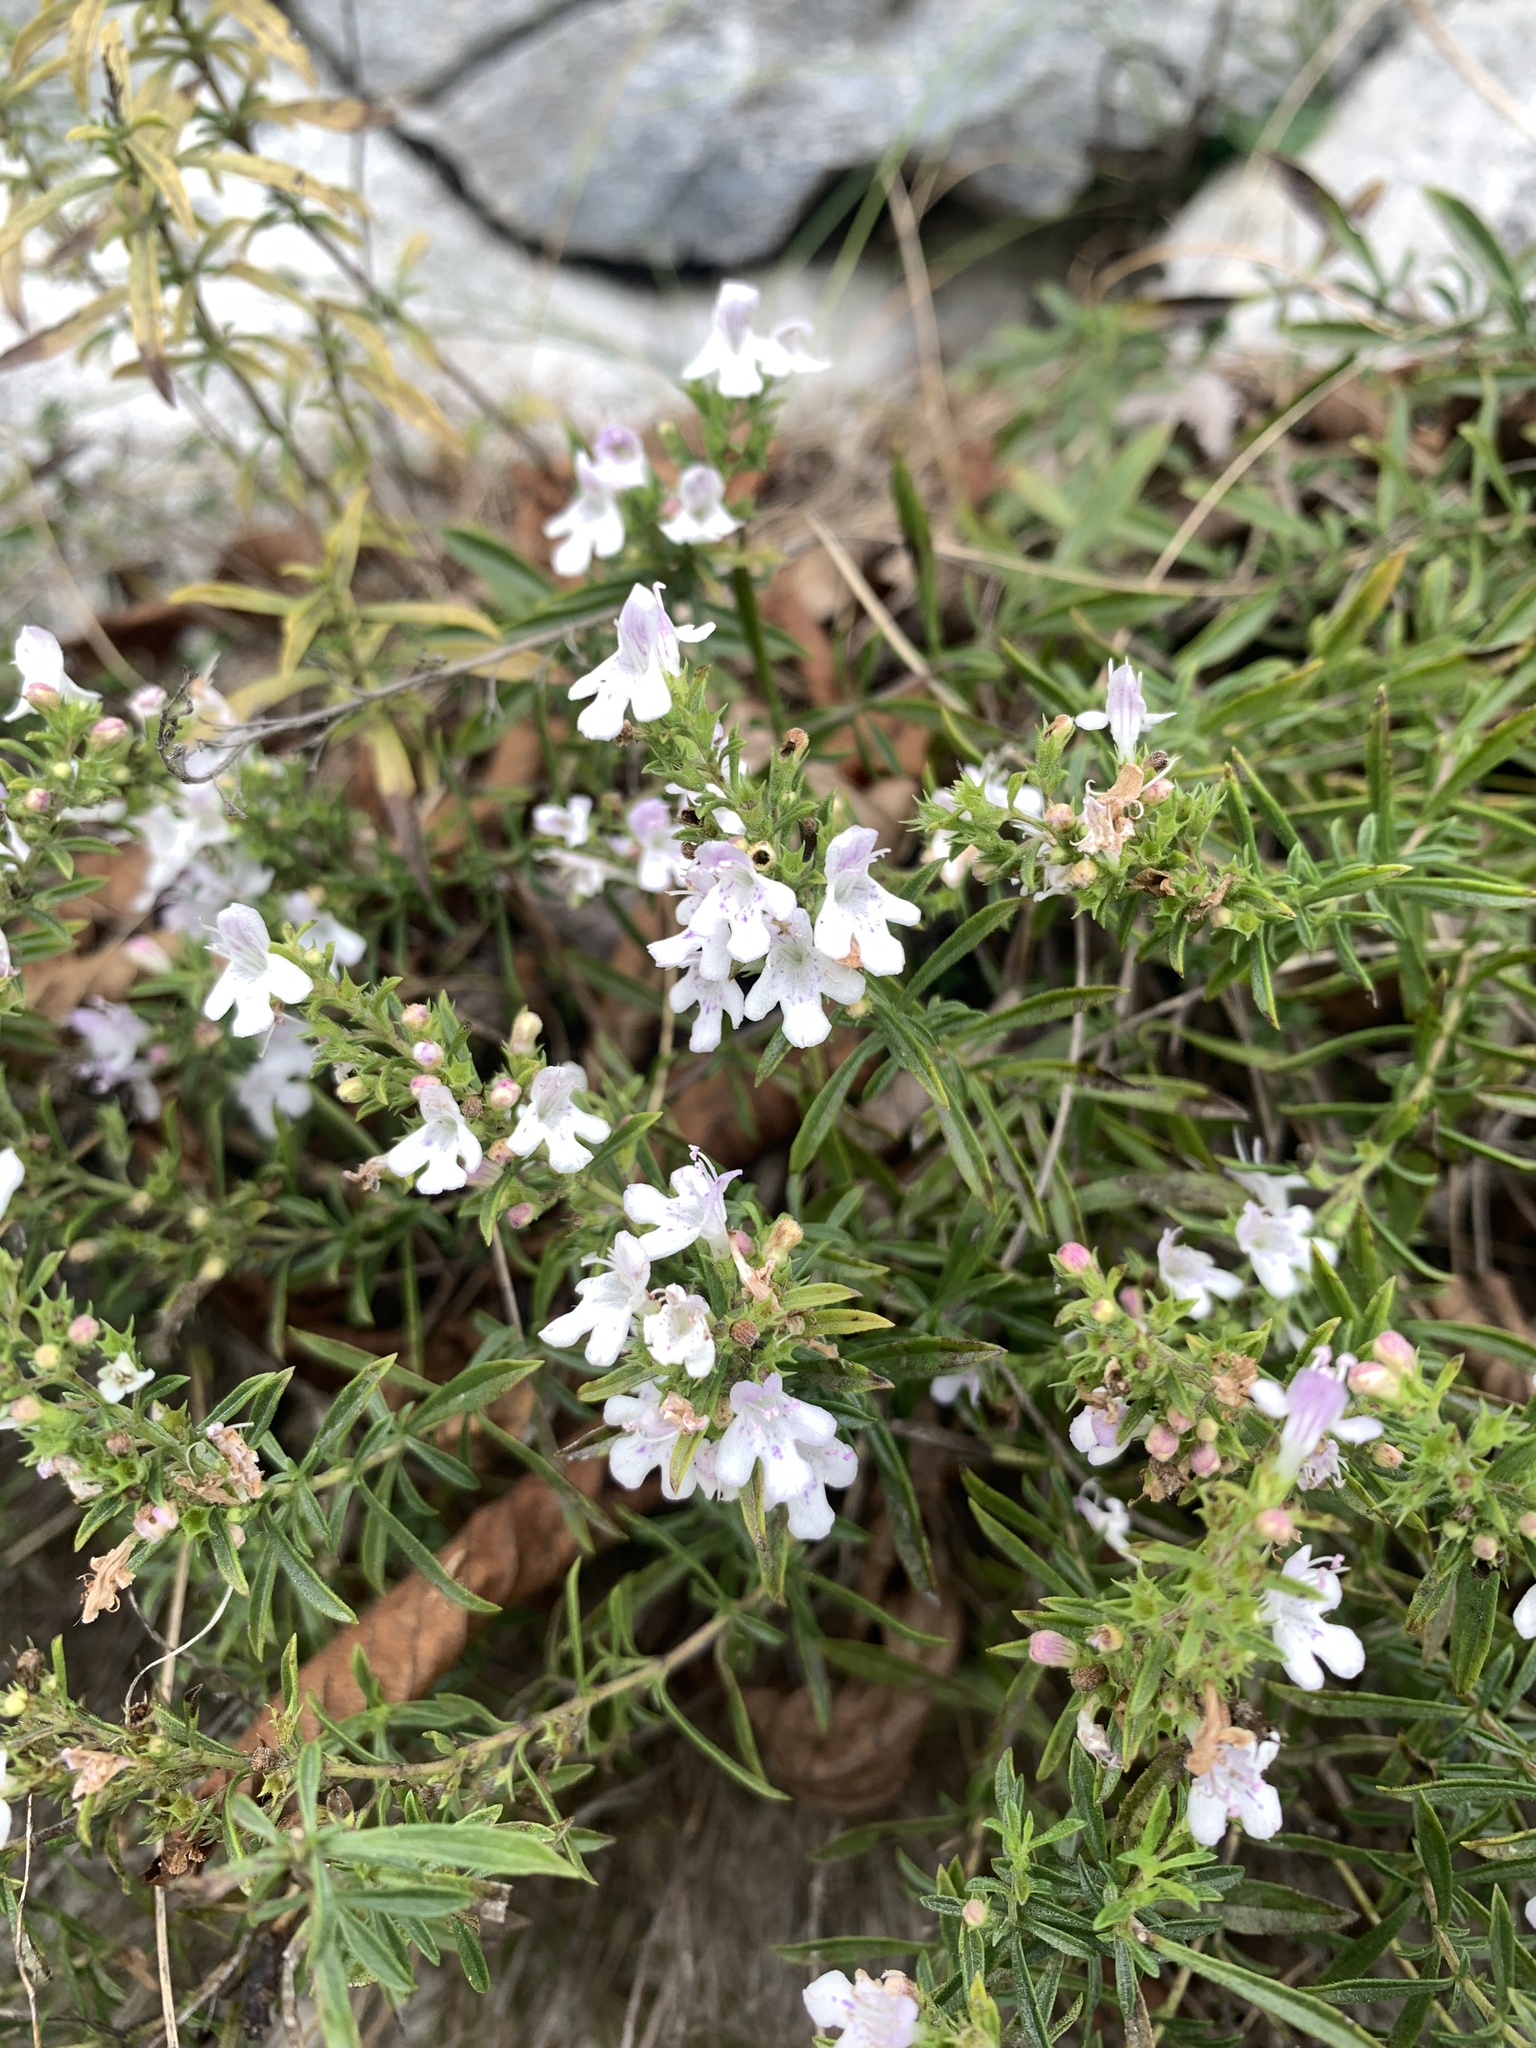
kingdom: Plantae
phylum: Tracheophyta
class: Magnoliopsida
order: Lamiales
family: Lamiaceae
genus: Satureja
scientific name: Satureja montana
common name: Winter savory
